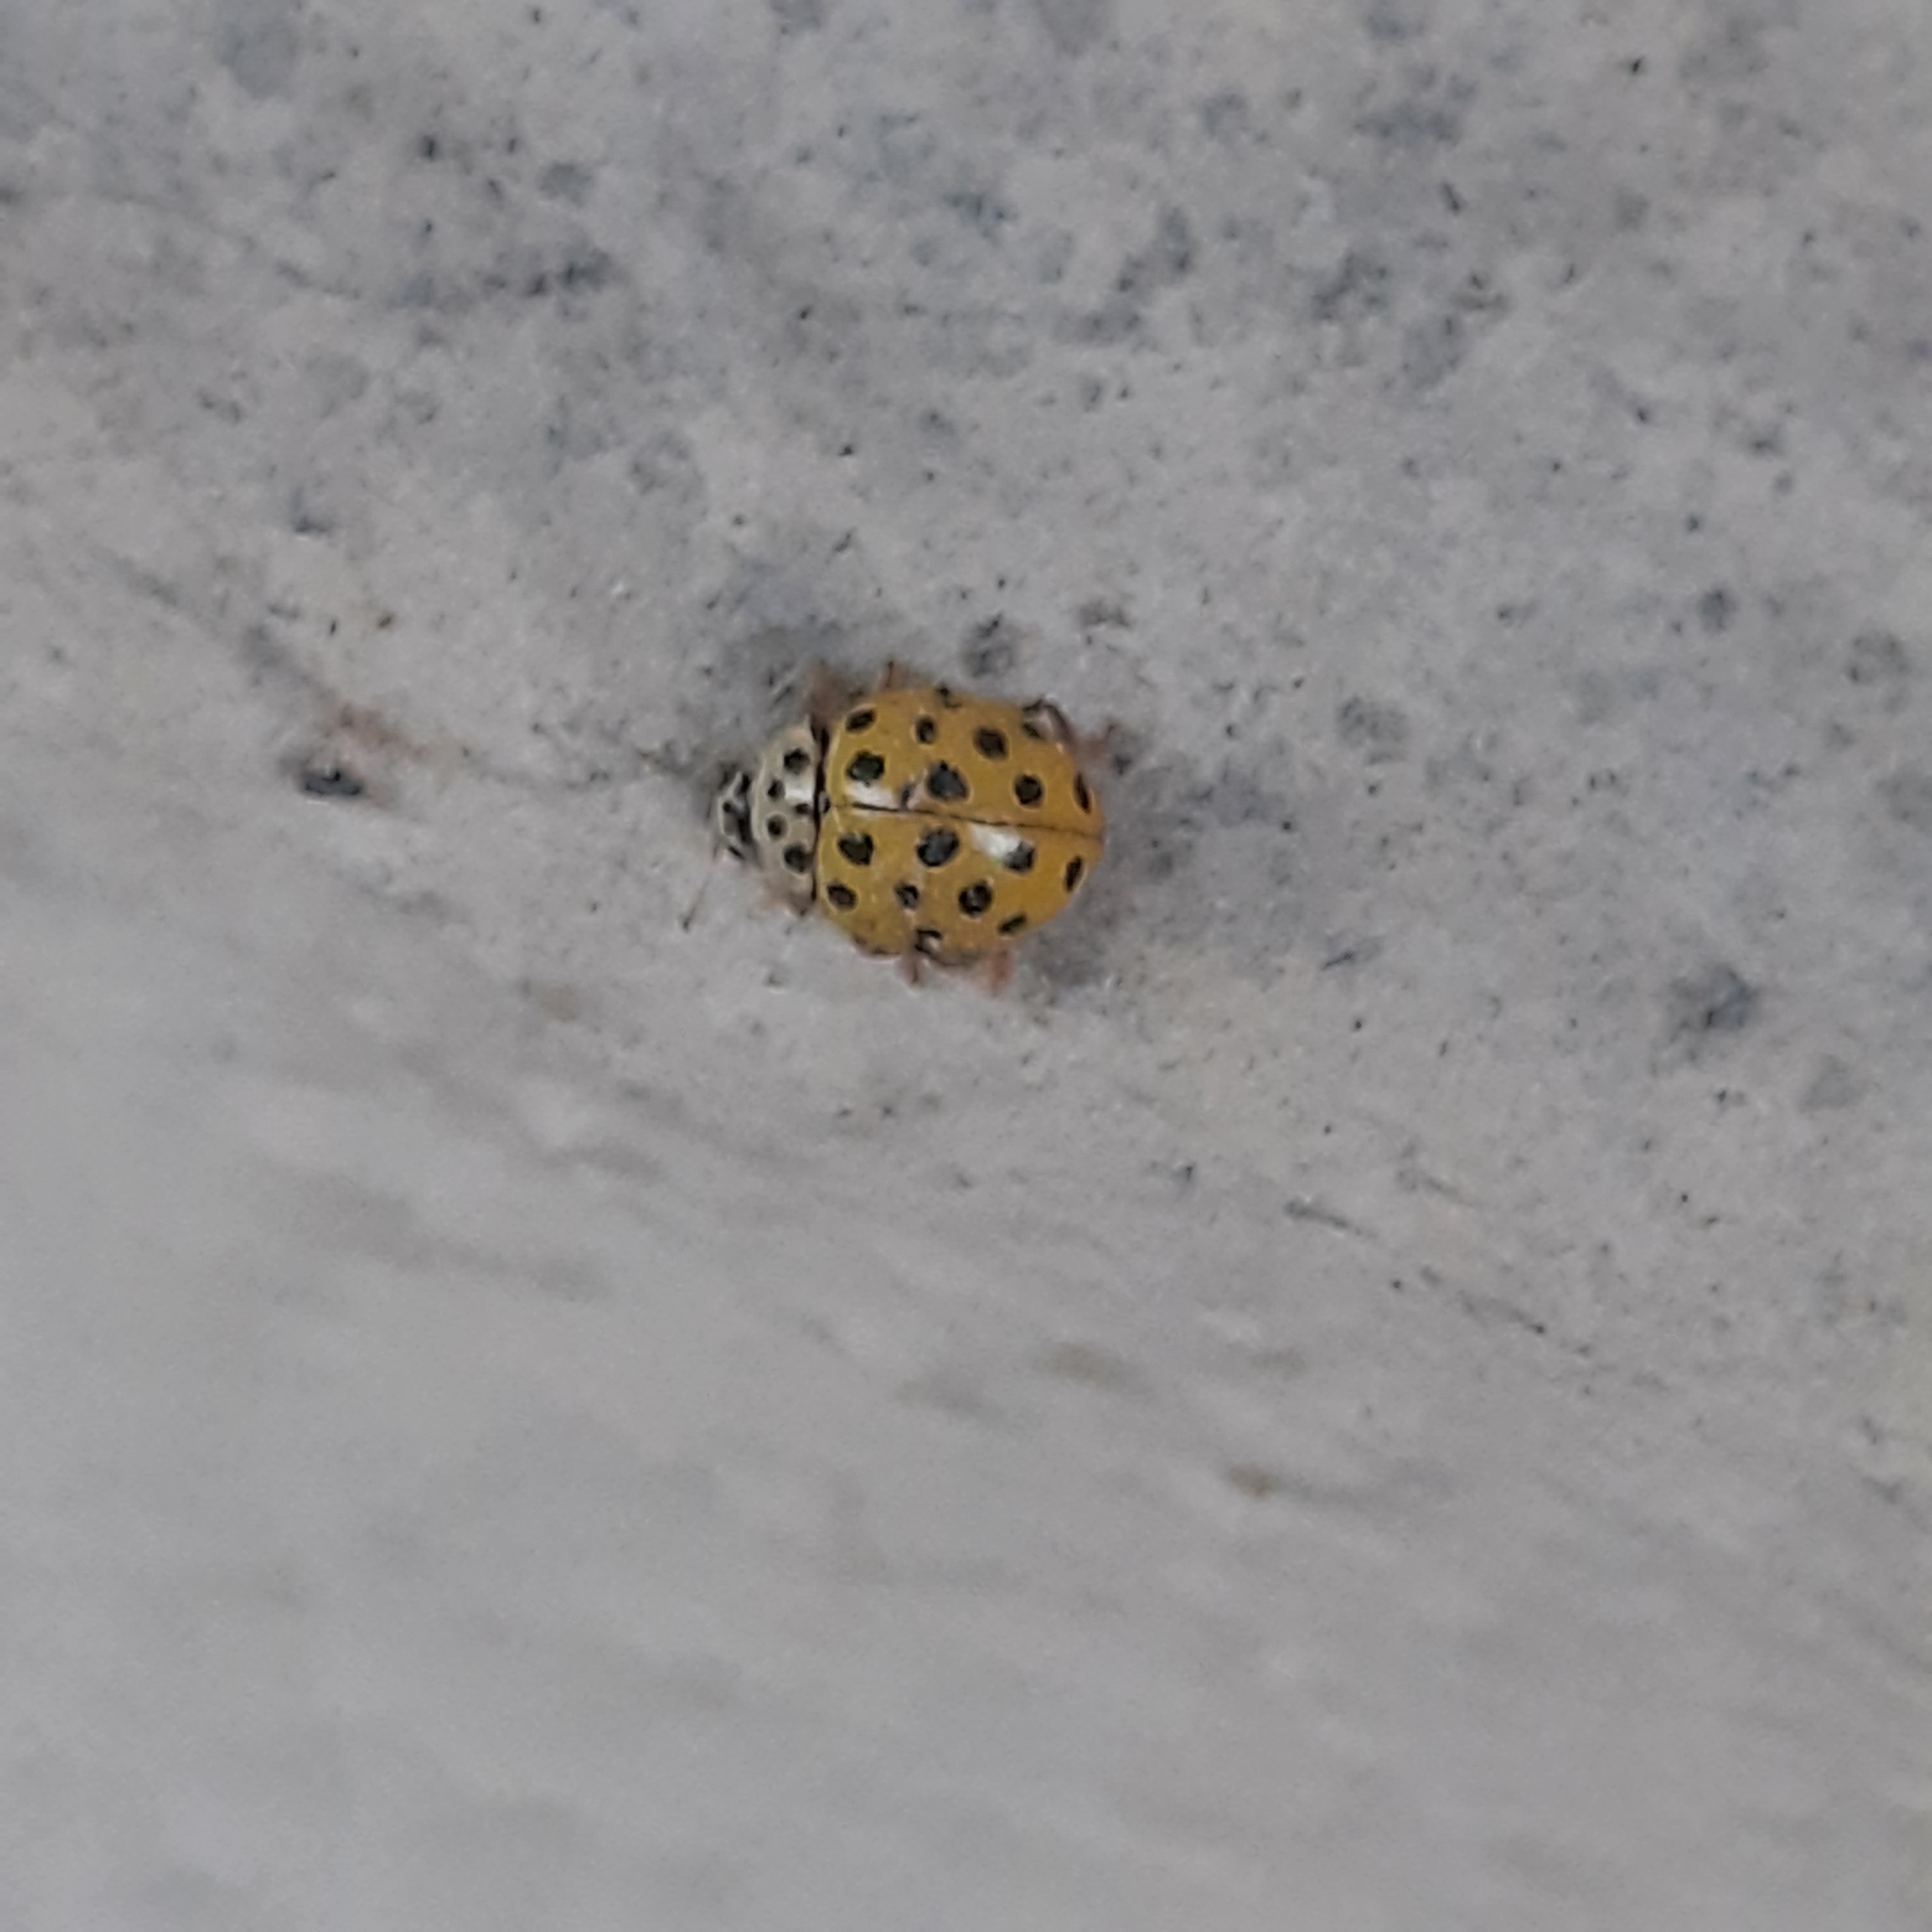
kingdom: Animalia
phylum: Arthropoda
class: Insecta
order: Coleoptera
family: Coccinellidae
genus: Psyllobora
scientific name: Psyllobora vigintiduopunctata
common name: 22-spot ladybird
